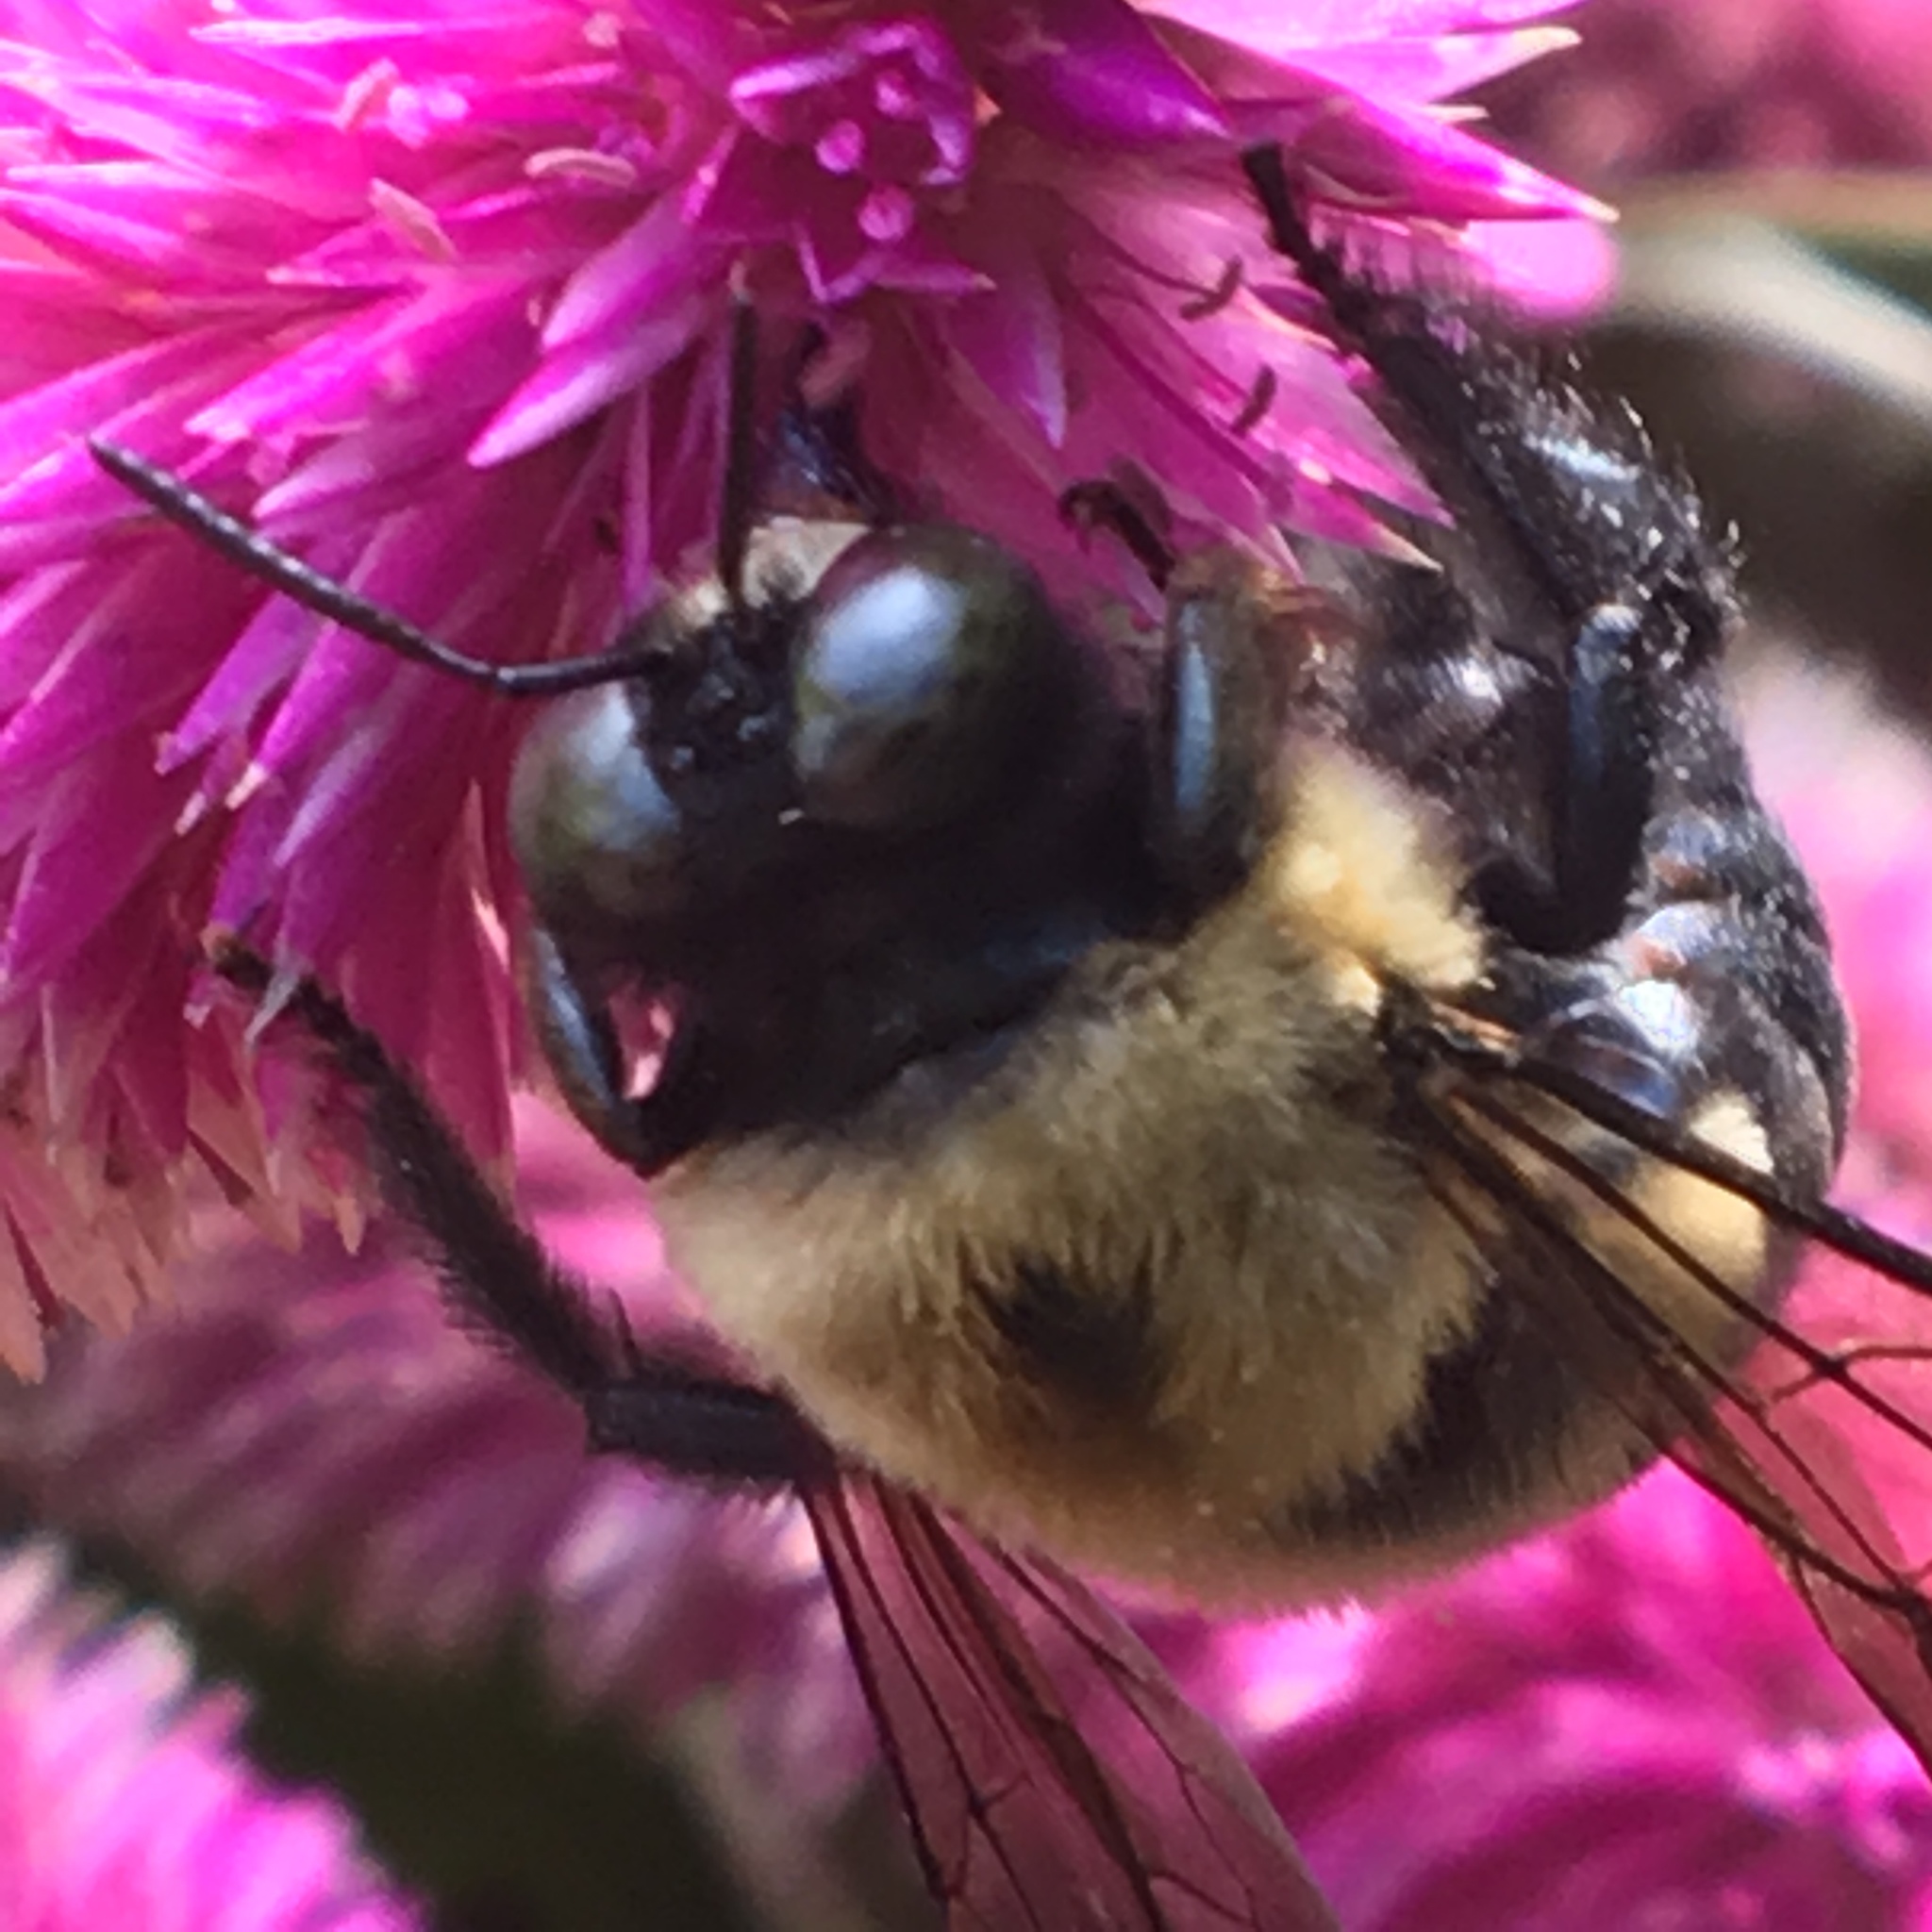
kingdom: Animalia
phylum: Arthropoda
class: Insecta
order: Hymenoptera
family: Apidae
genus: Xylocopa
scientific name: Xylocopa virginica
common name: Carpenter bee
